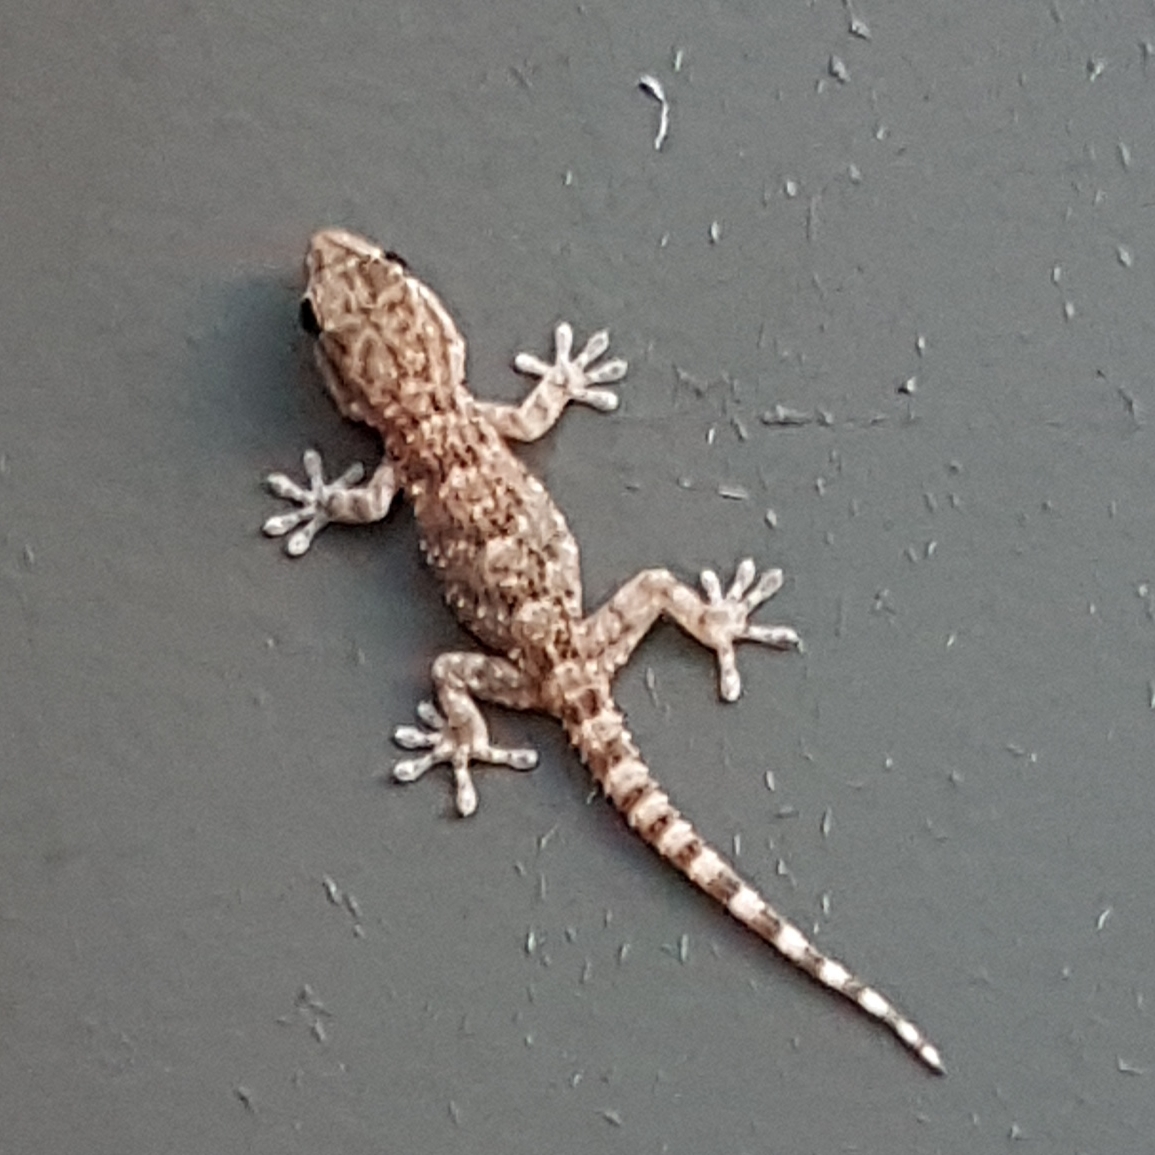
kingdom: Animalia
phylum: Chordata
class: Squamata
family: Phyllodactylidae
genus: Tarentola
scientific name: Tarentola mauritanica
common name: Moorish gecko
